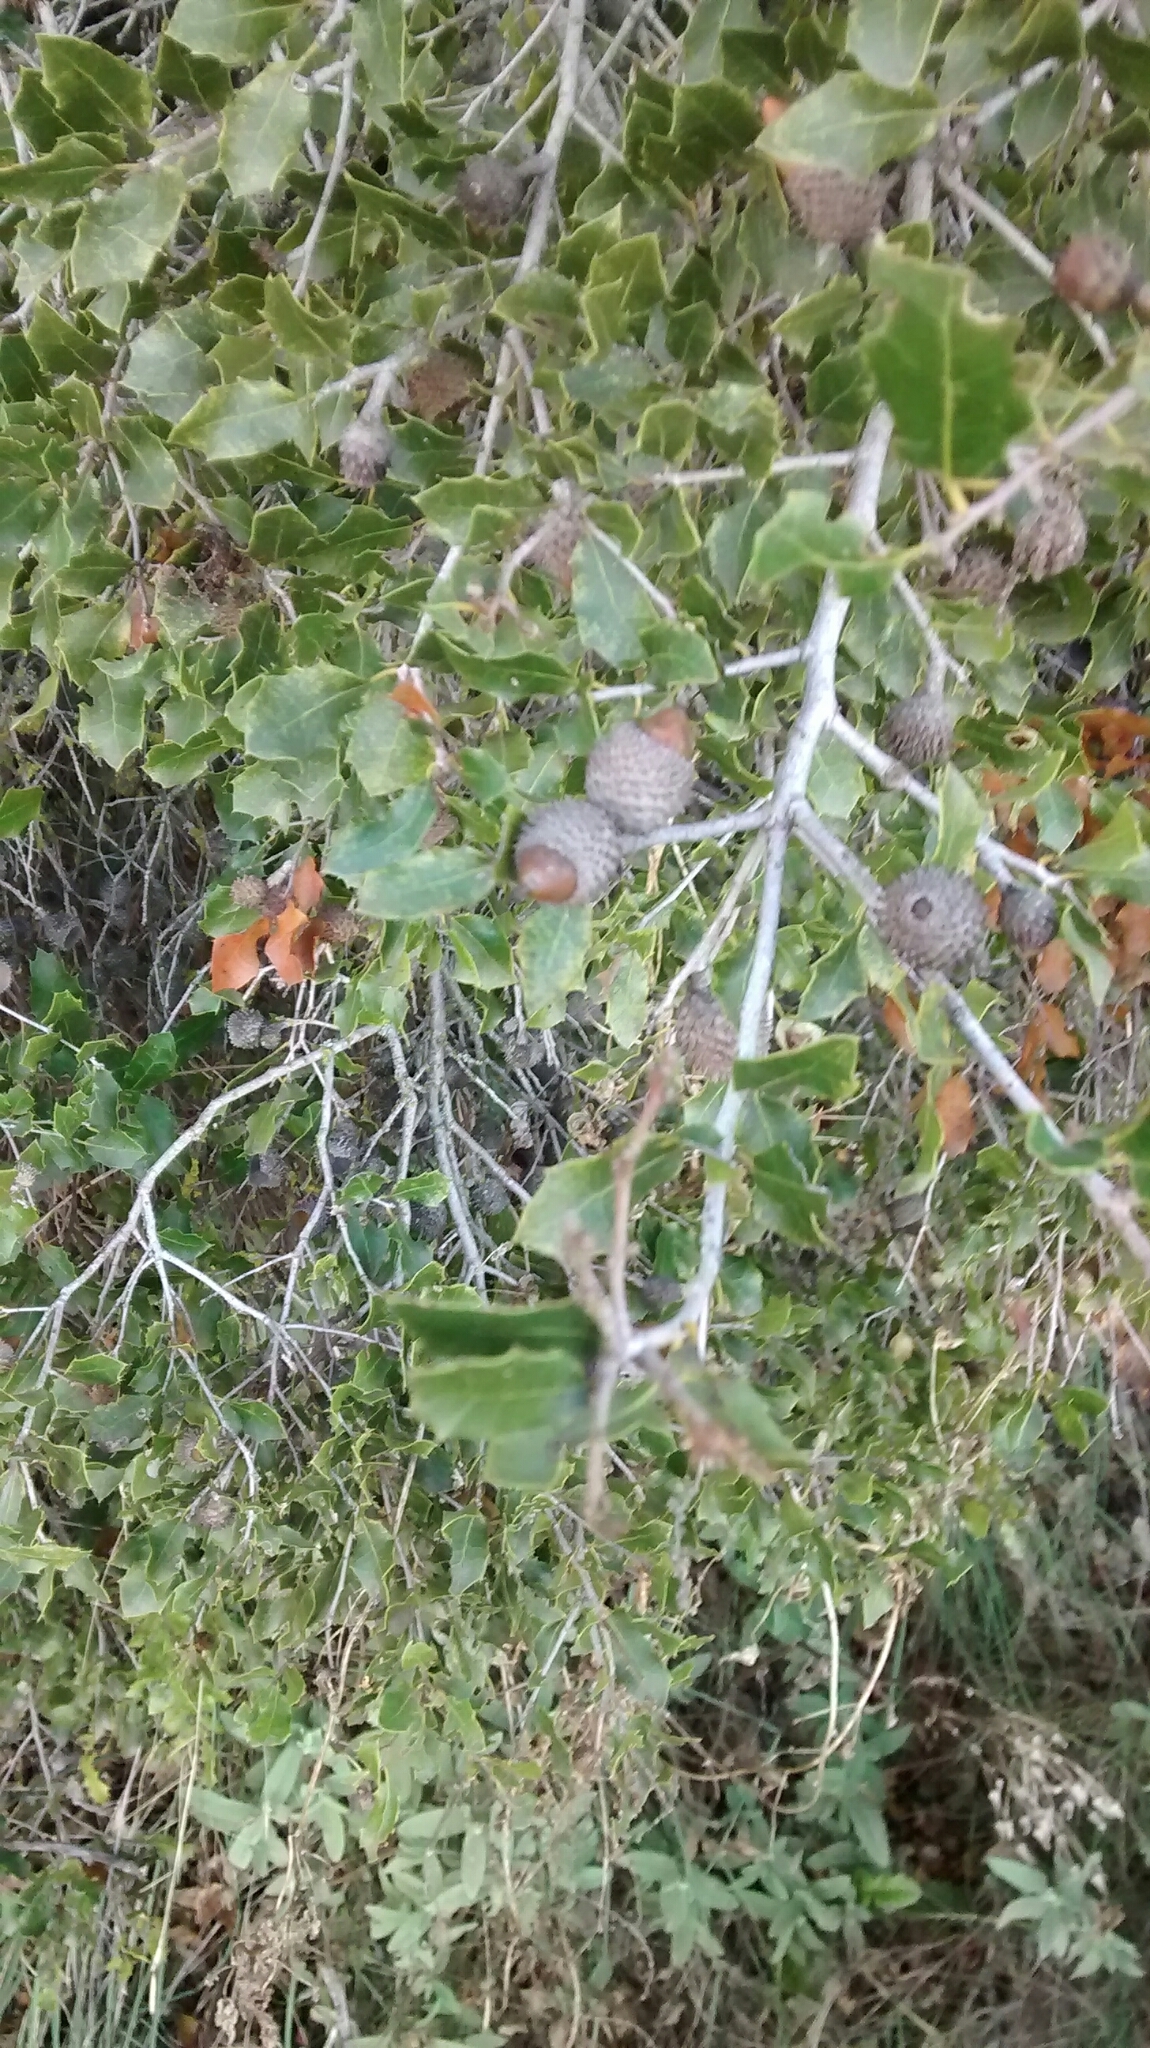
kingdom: Plantae
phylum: Tracheophyta
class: Magnoliopsida
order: Fagales
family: Fagaceae
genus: Quercus
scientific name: Quercus coccifera
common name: Kermes oak
